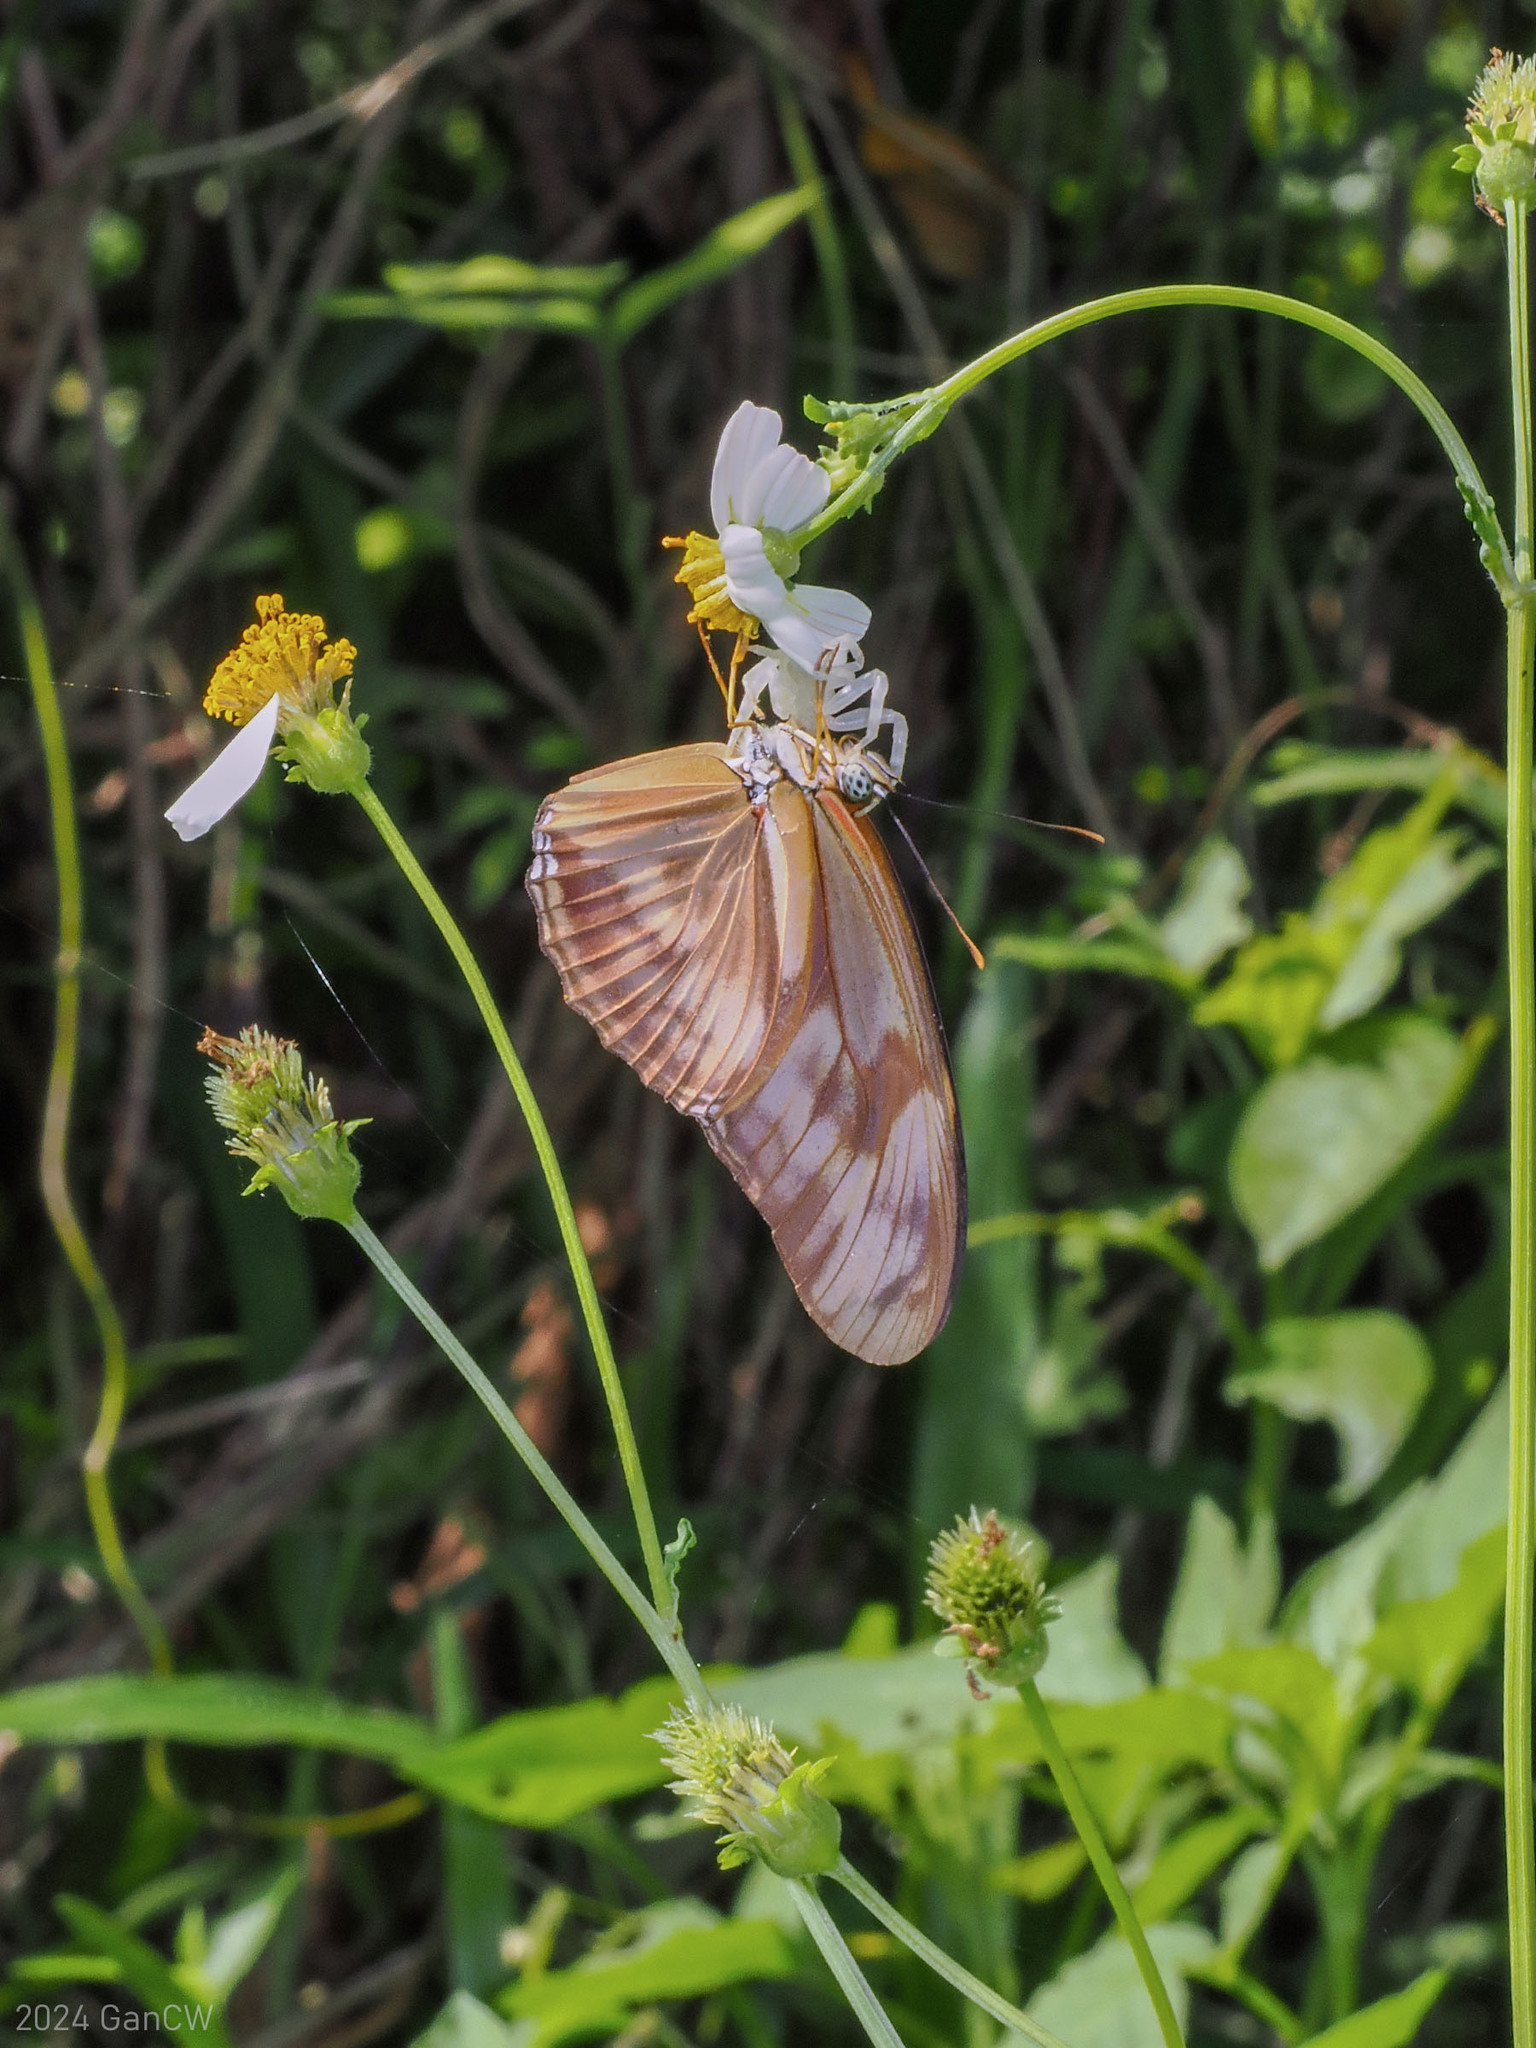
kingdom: Animalia
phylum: Arthropoda
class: Insecta
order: Lepidoptera
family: Nymphalidae
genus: Dryas
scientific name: Dryas iulia
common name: Flambeau
